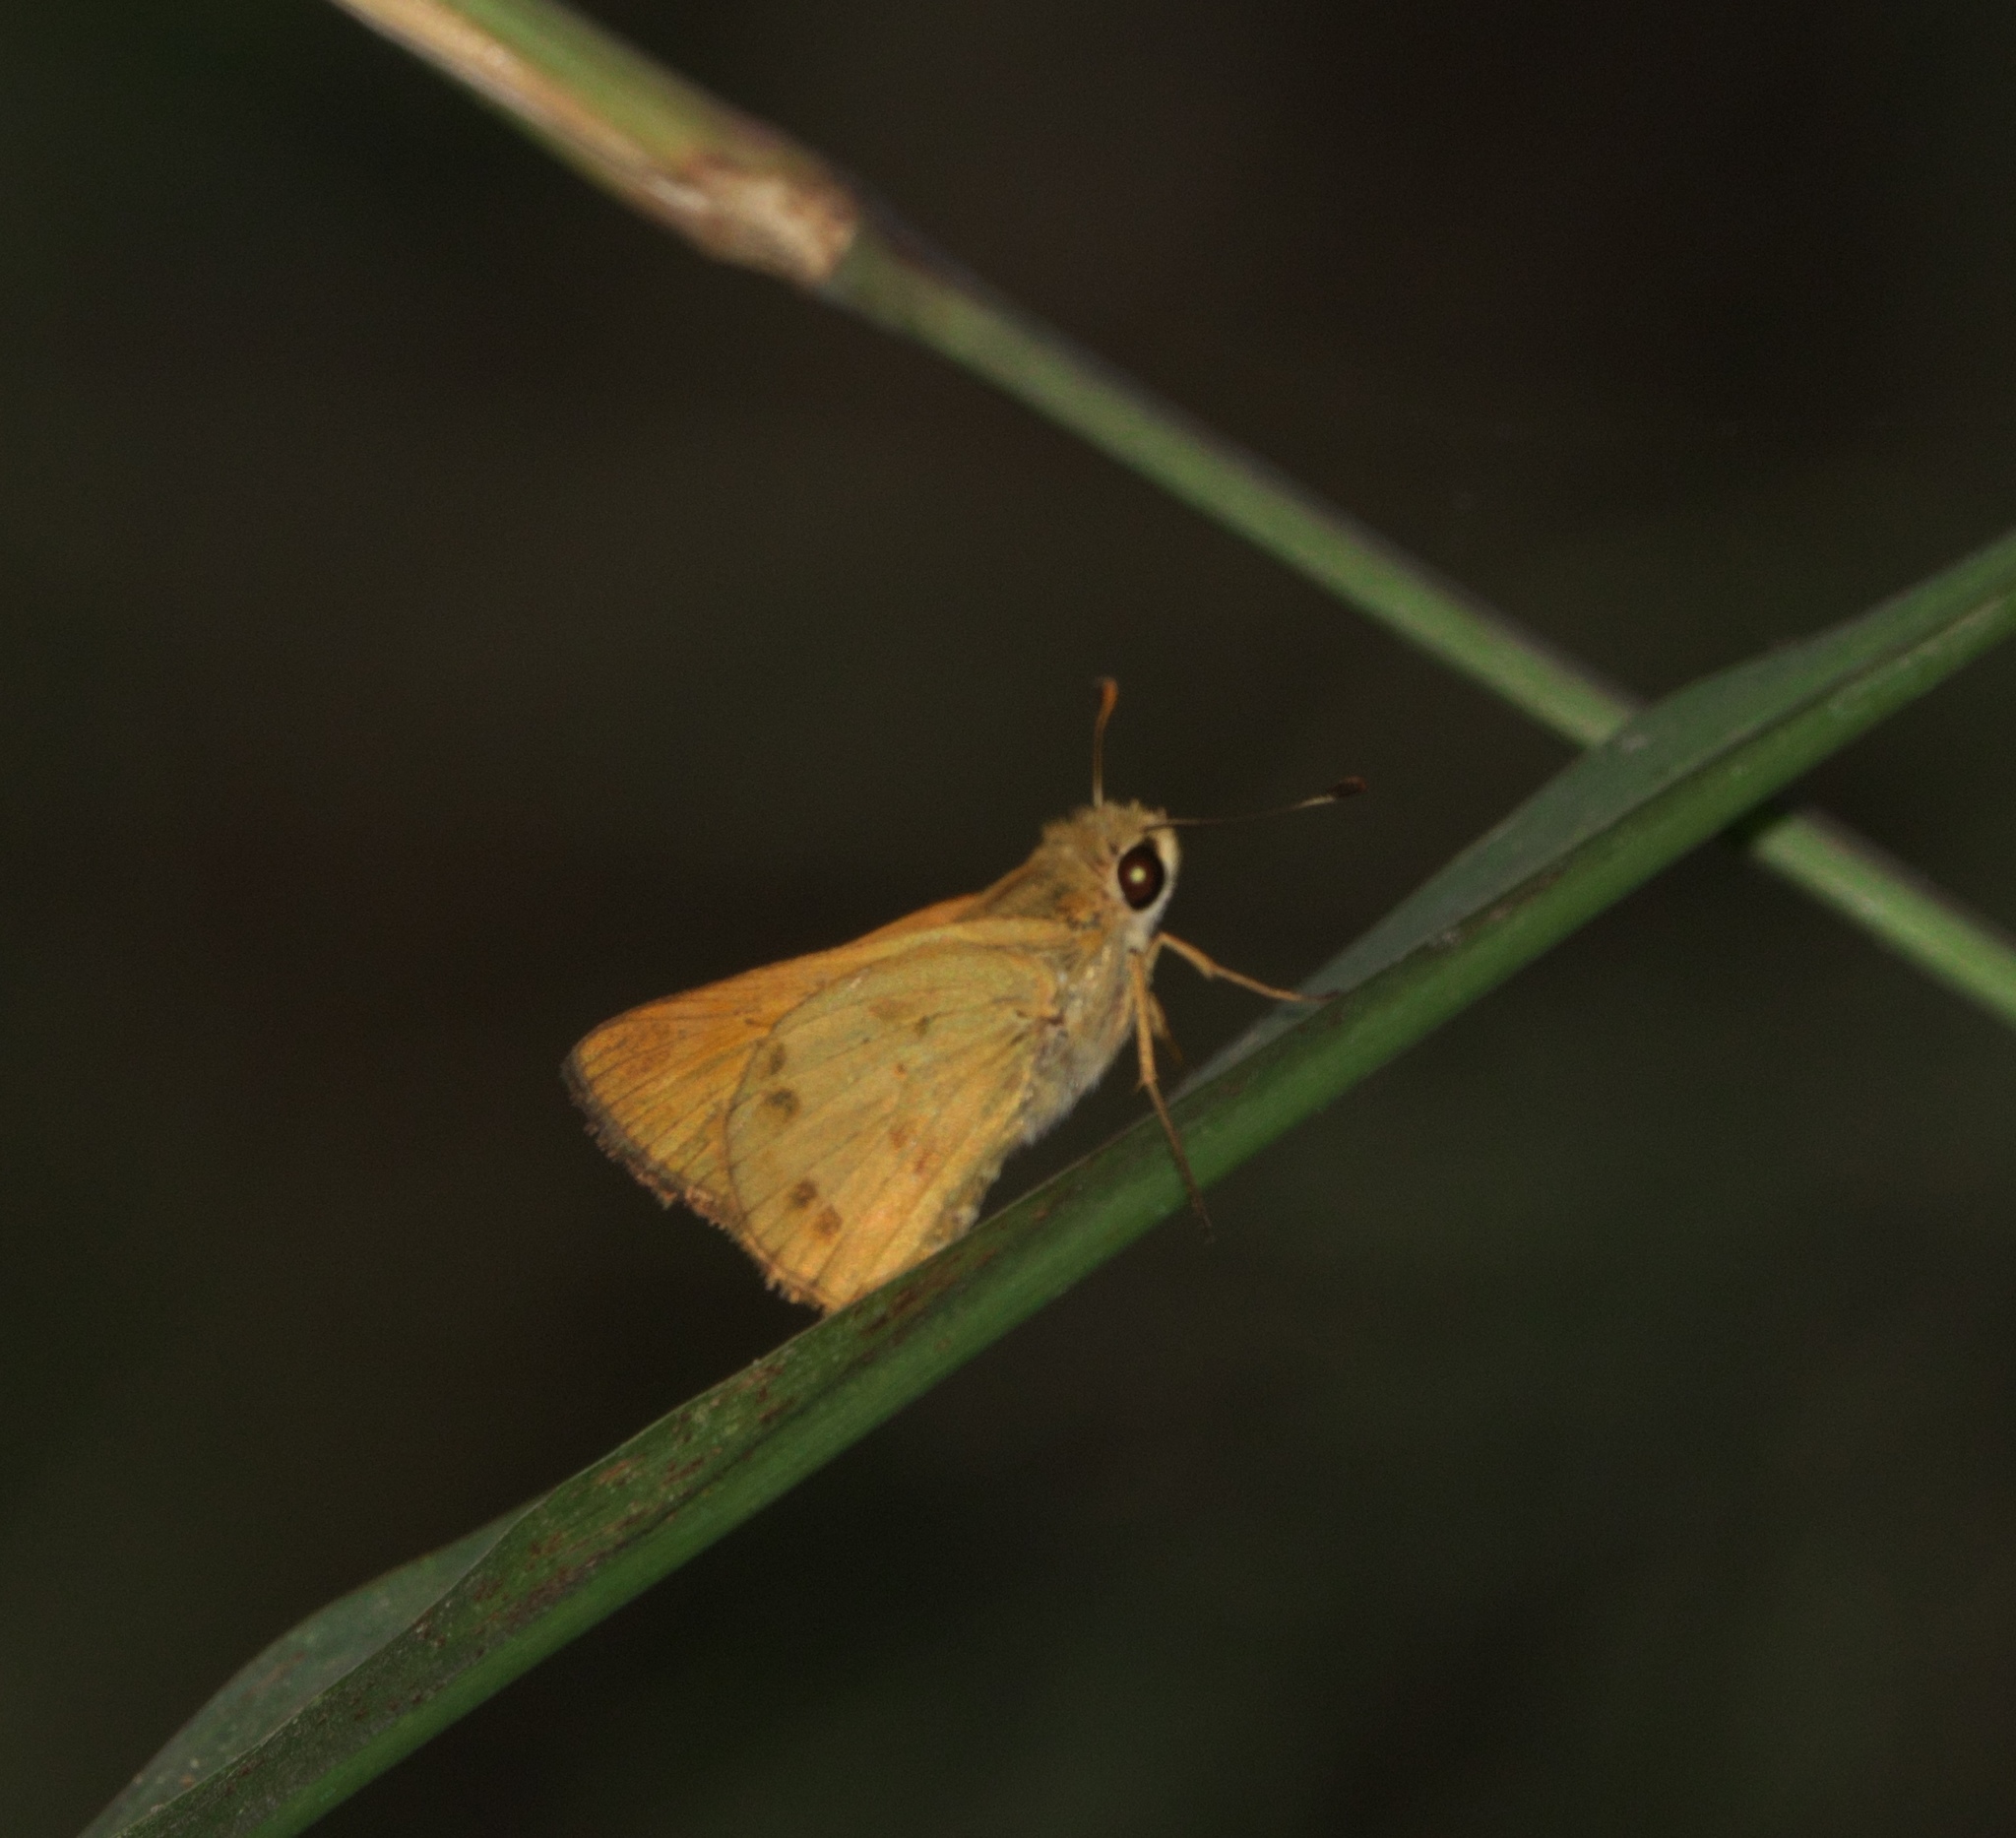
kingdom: Animalia
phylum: Arthropoda
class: Insecta
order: Lepidoptera
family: Hesperiidae
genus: Polites
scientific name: Polites vibex
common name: Whirlabout
